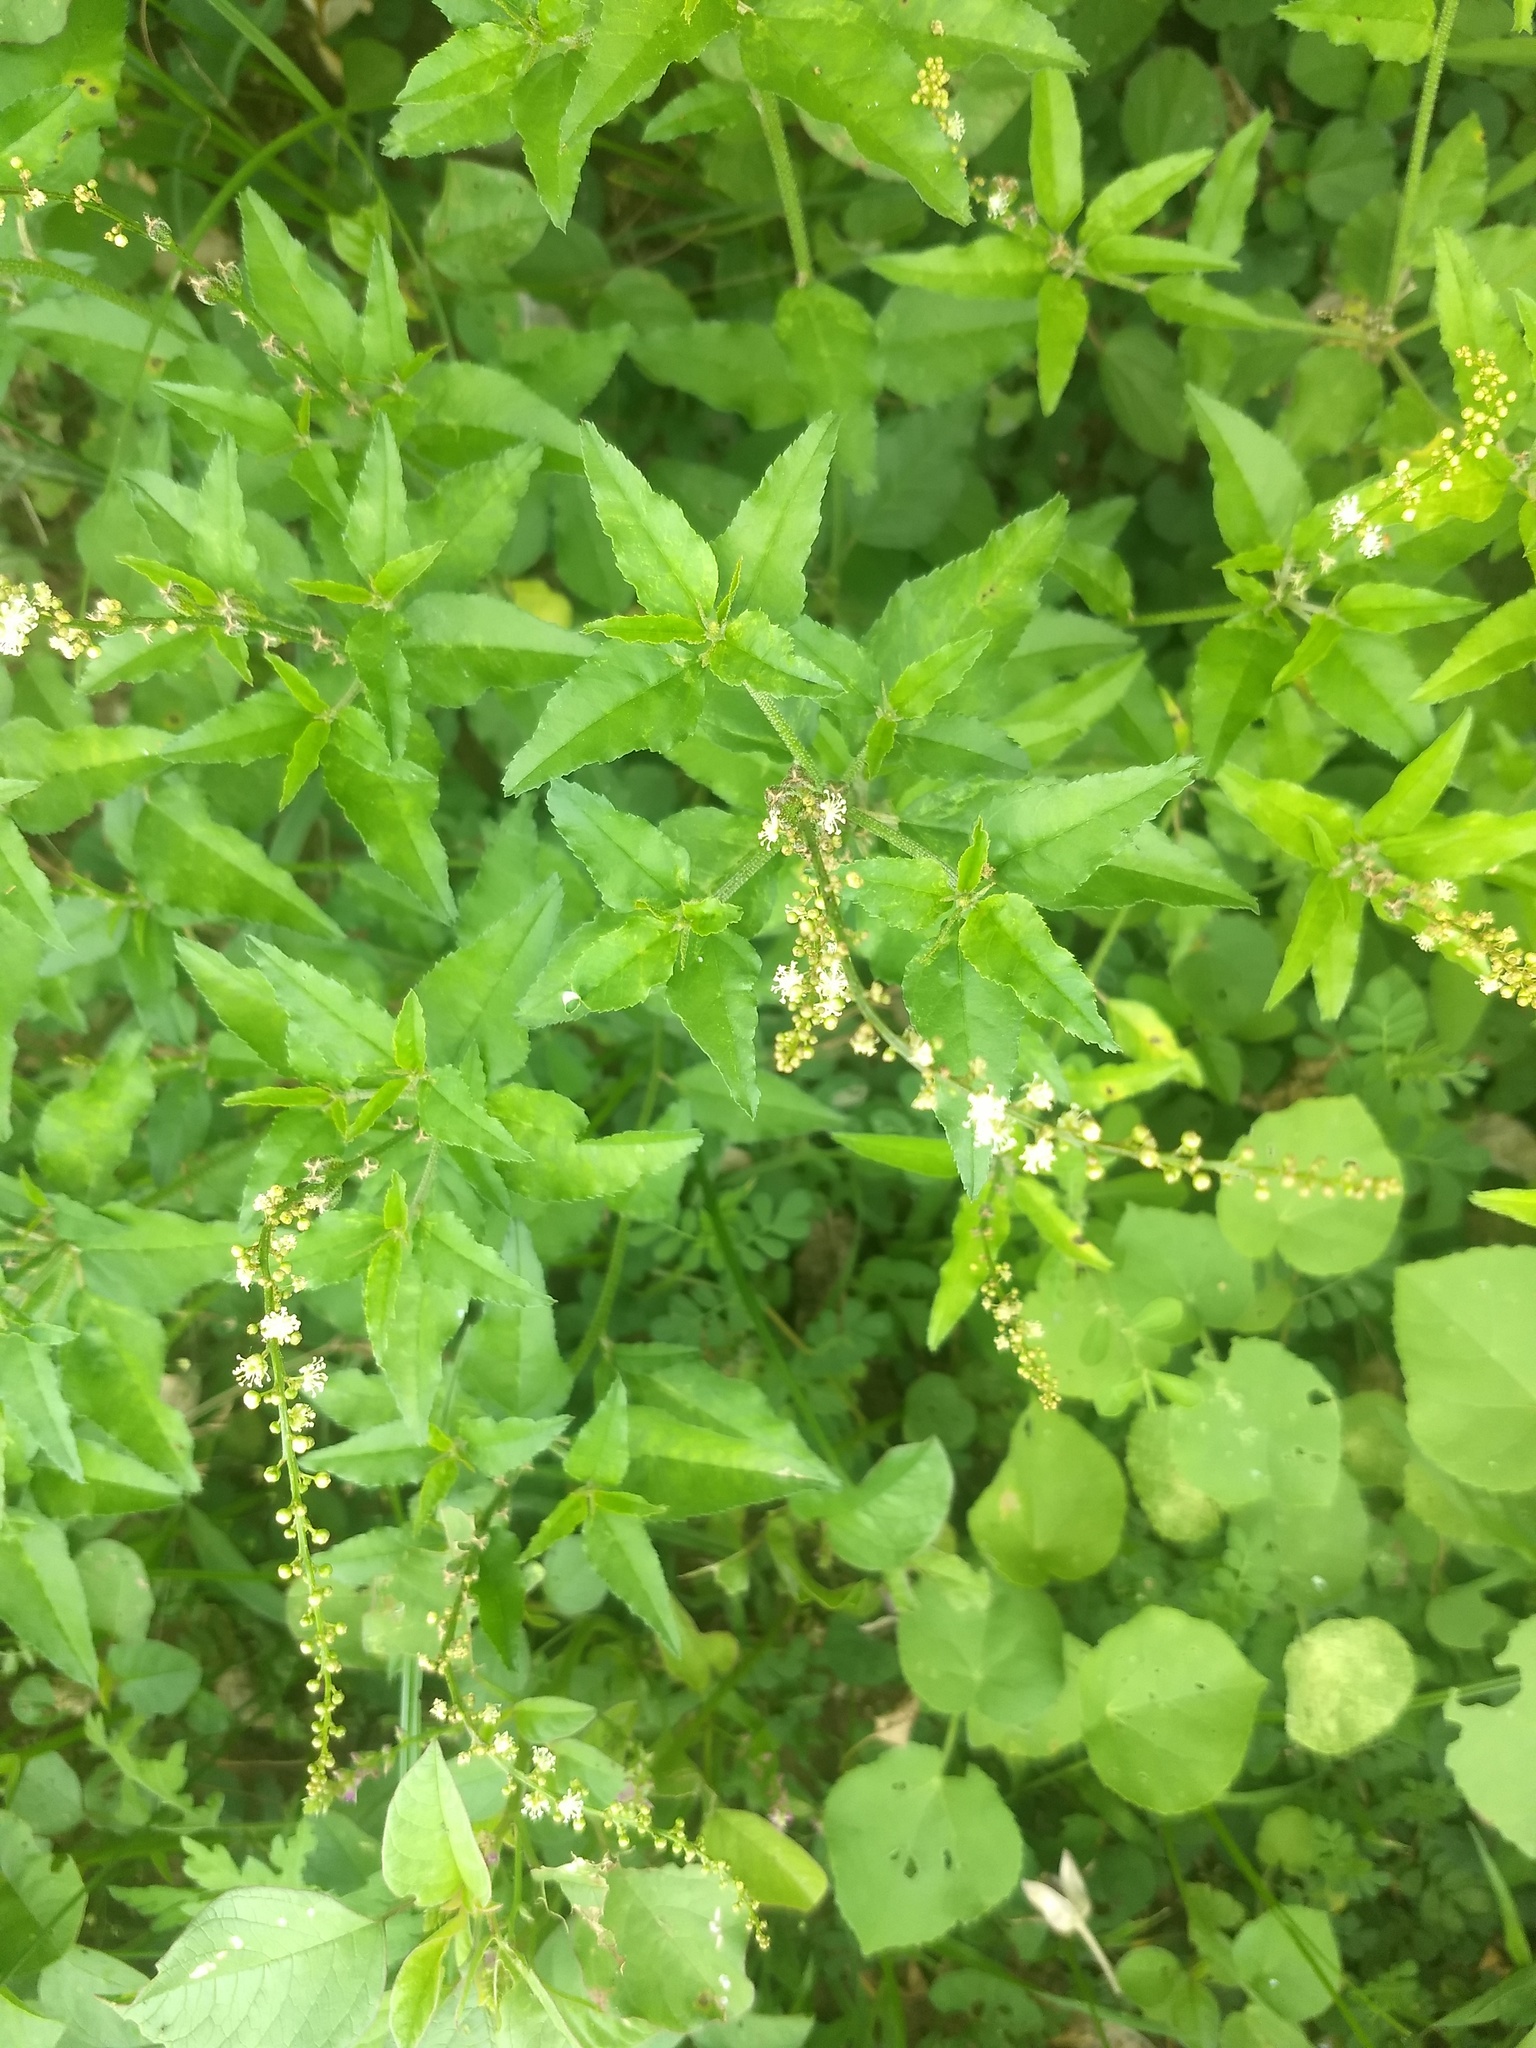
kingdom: Plantae
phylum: Tracheophyta
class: Magnoliopsida
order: Malpighiales
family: Euphorbiaceae
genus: Croton
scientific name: Croton bonplandianus
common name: Bonpland's croton
